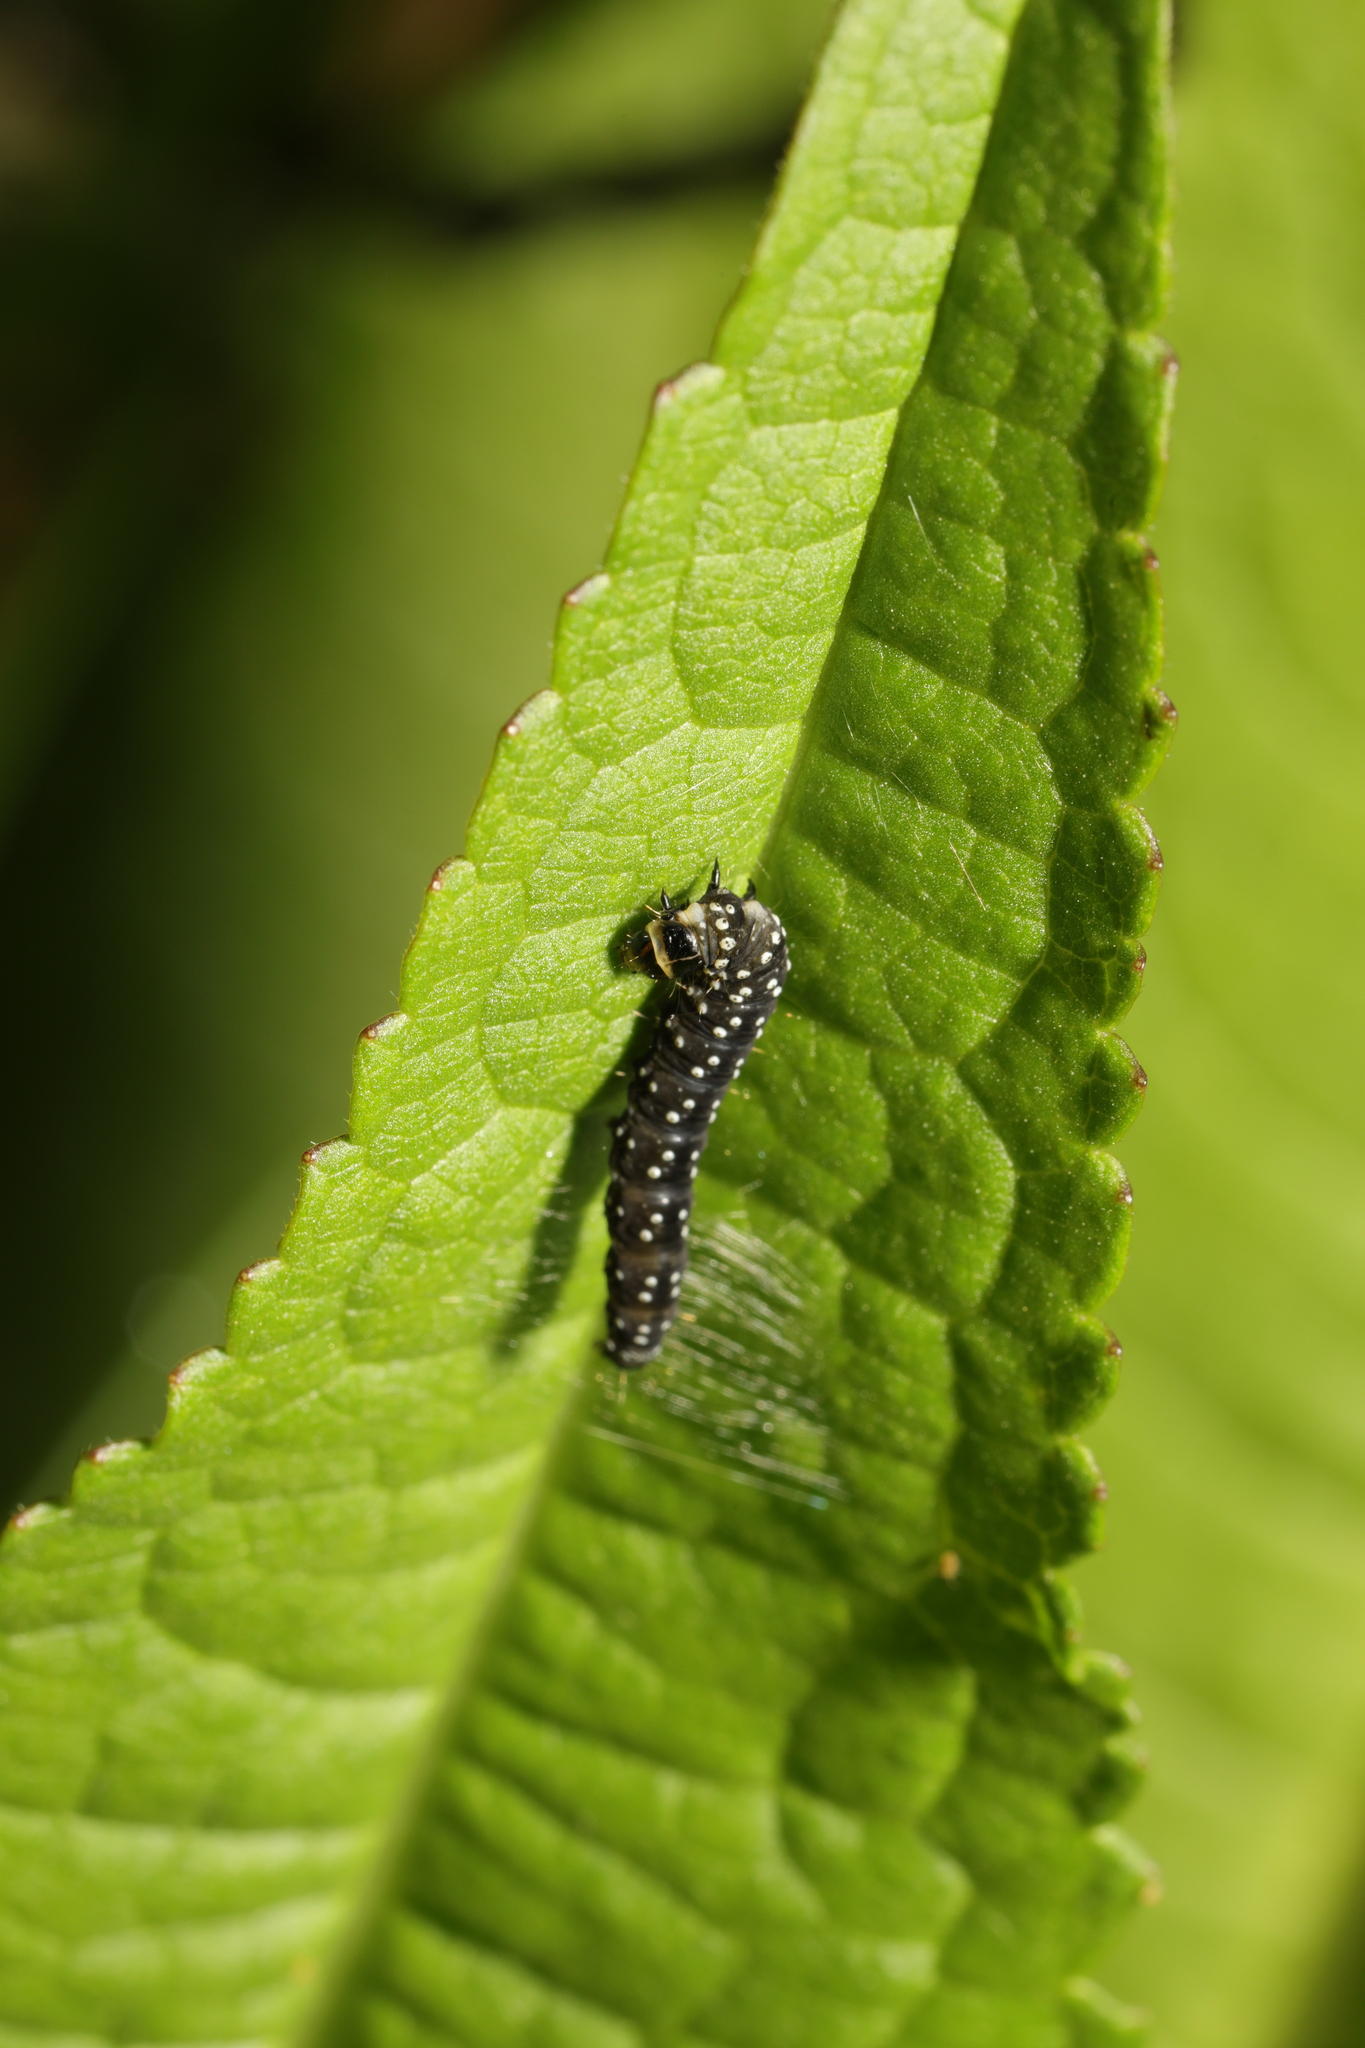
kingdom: Animalia
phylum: Arthropoda
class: Insecta
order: Lepidoptera
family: Tortricidae
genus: Aphelia
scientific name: Aphelia Zelotherses paleana
